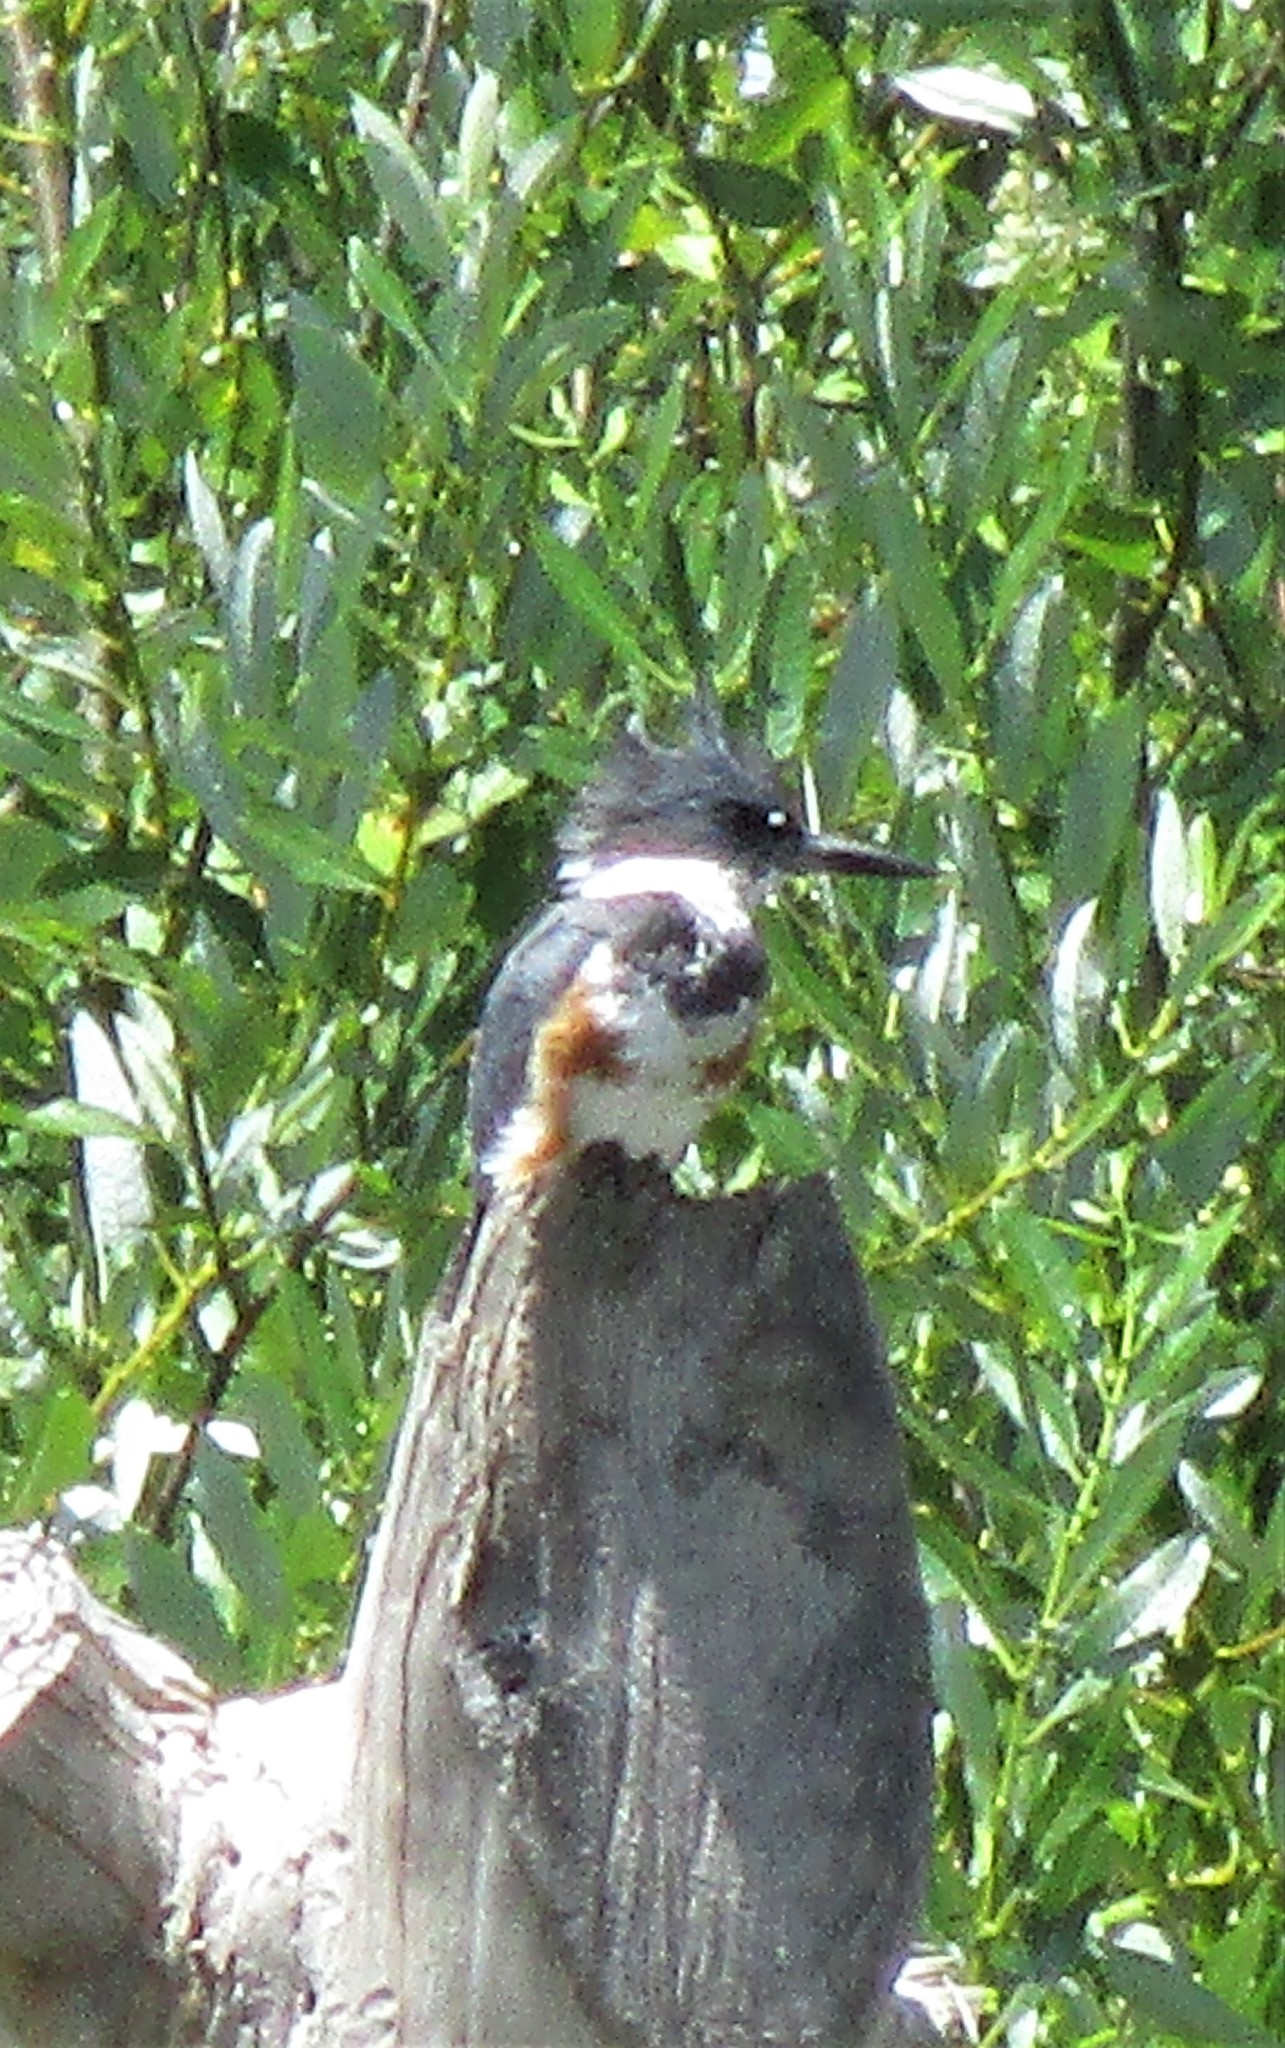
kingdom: Animalia
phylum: Chordata
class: Aves
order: Coraciiformes
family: Alcedinidae
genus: Megaceryle
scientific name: Megaceryle alcyon
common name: Belted kingfisher
